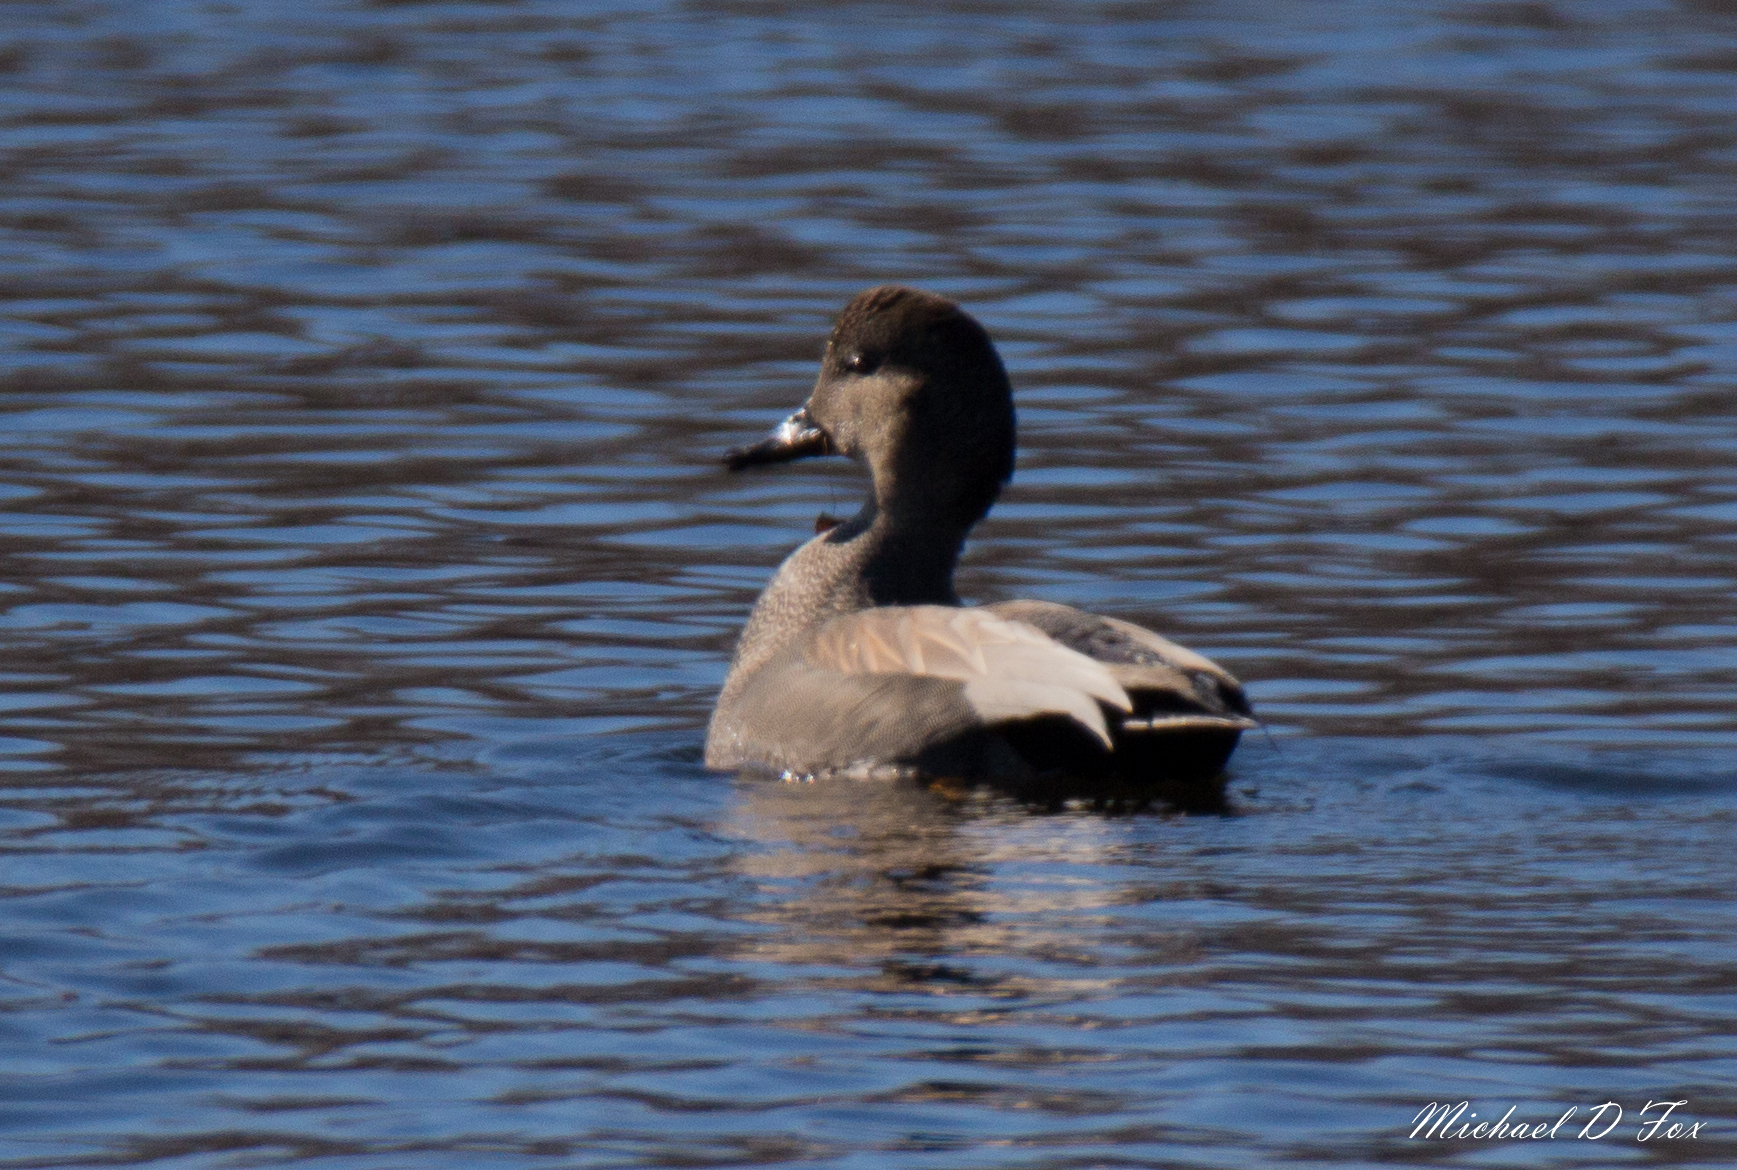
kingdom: Animalia
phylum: Chordata
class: Aves
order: Anseriformes
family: Anatidae
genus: Mareca
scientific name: Mareca strepera
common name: Gadwall
